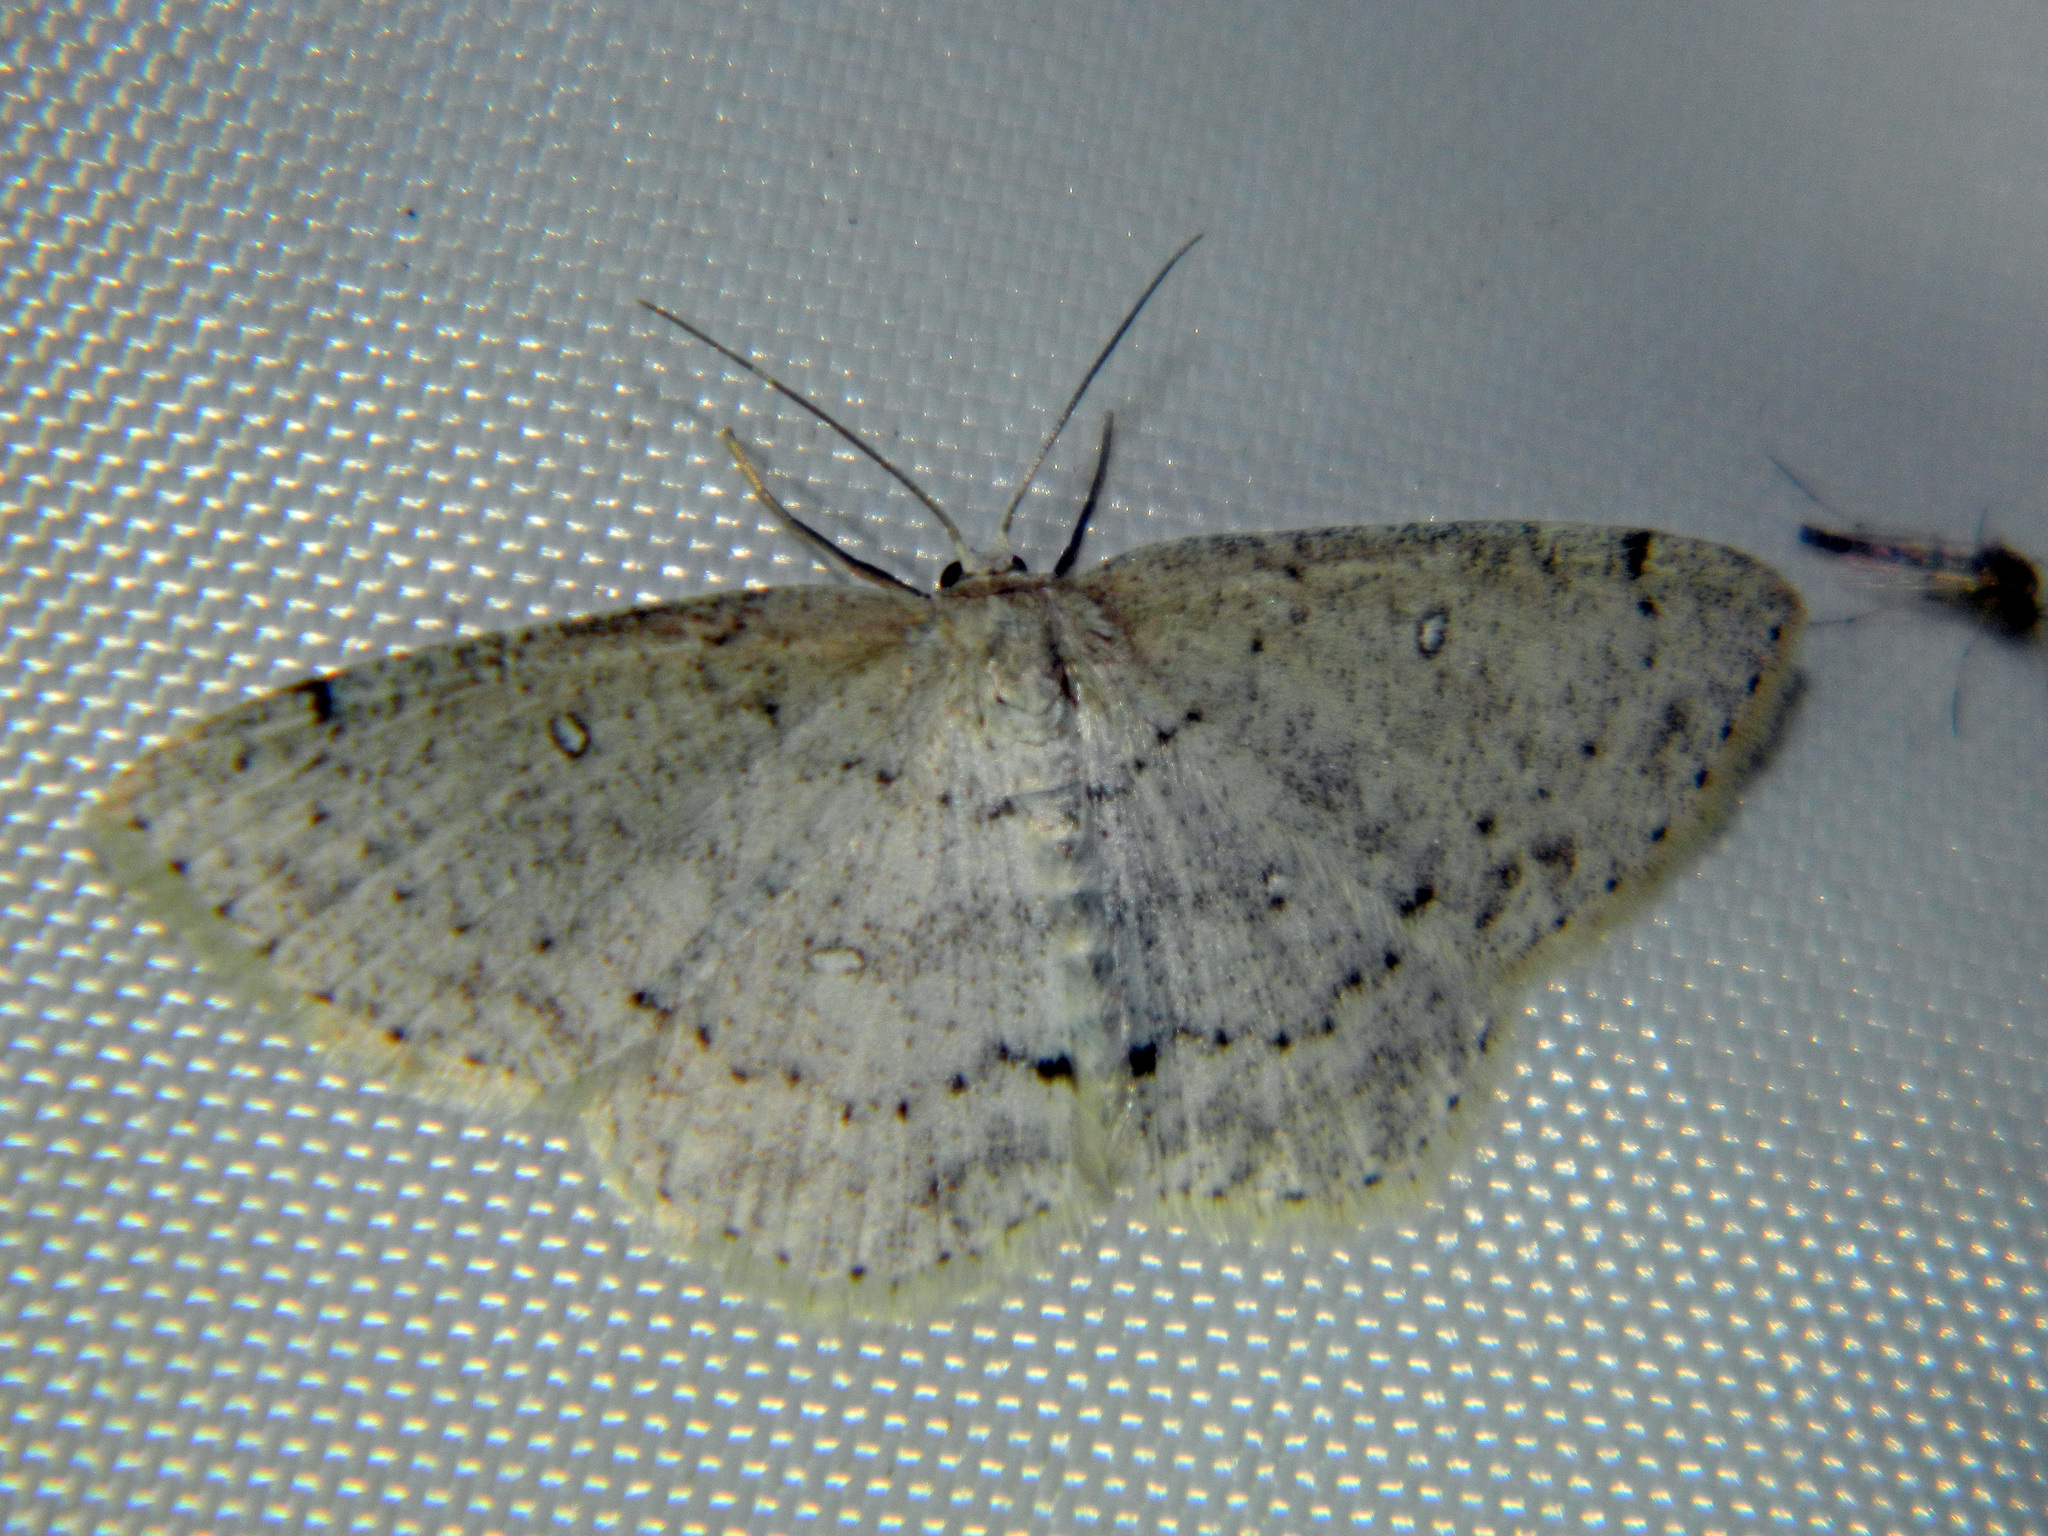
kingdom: Animalia
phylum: Arthropoda
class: Insecta
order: Lepidoptera
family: Geometridae
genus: Cyclophora
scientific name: Cyclophora pendulinaria
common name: Sweet fern geometer
